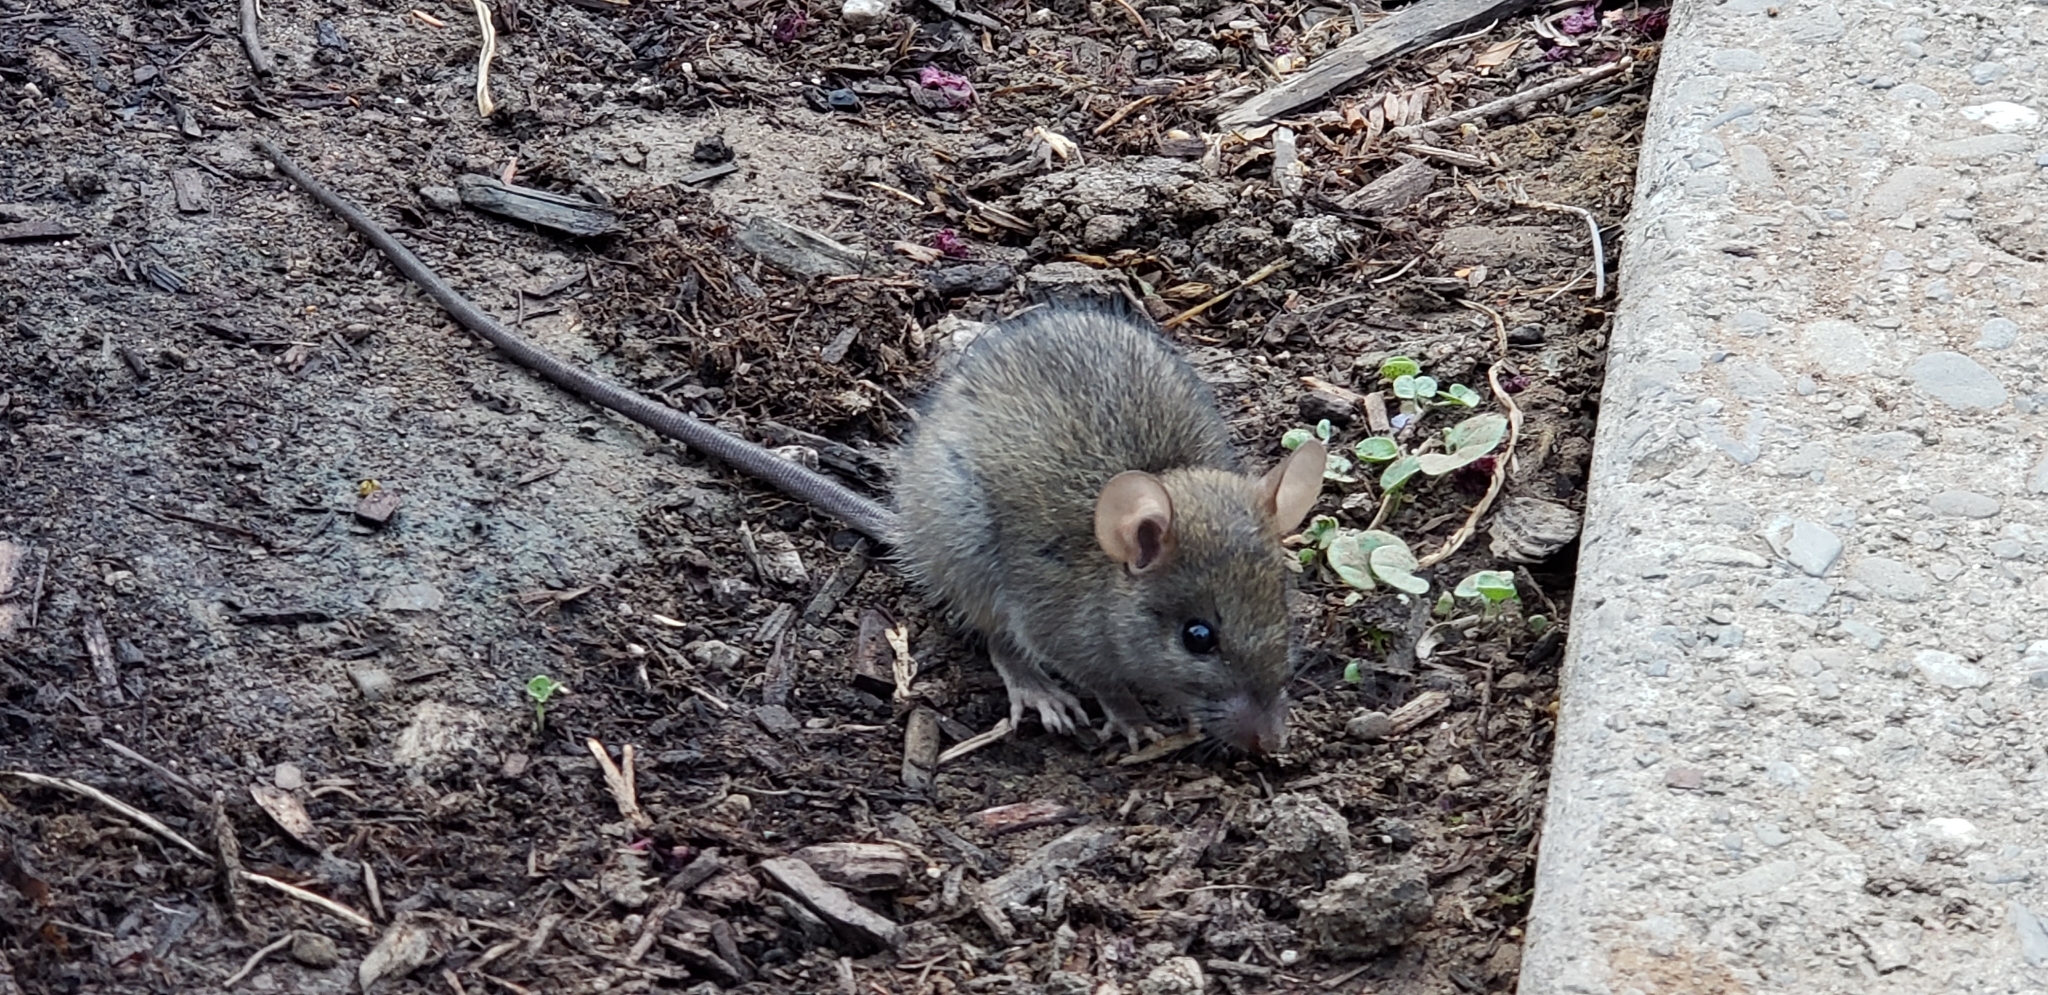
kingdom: Animalia
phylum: Chordata
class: Mammalia
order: Rodentia
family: Muridae
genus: Rattus
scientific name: Rattus rattus
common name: Black rat
